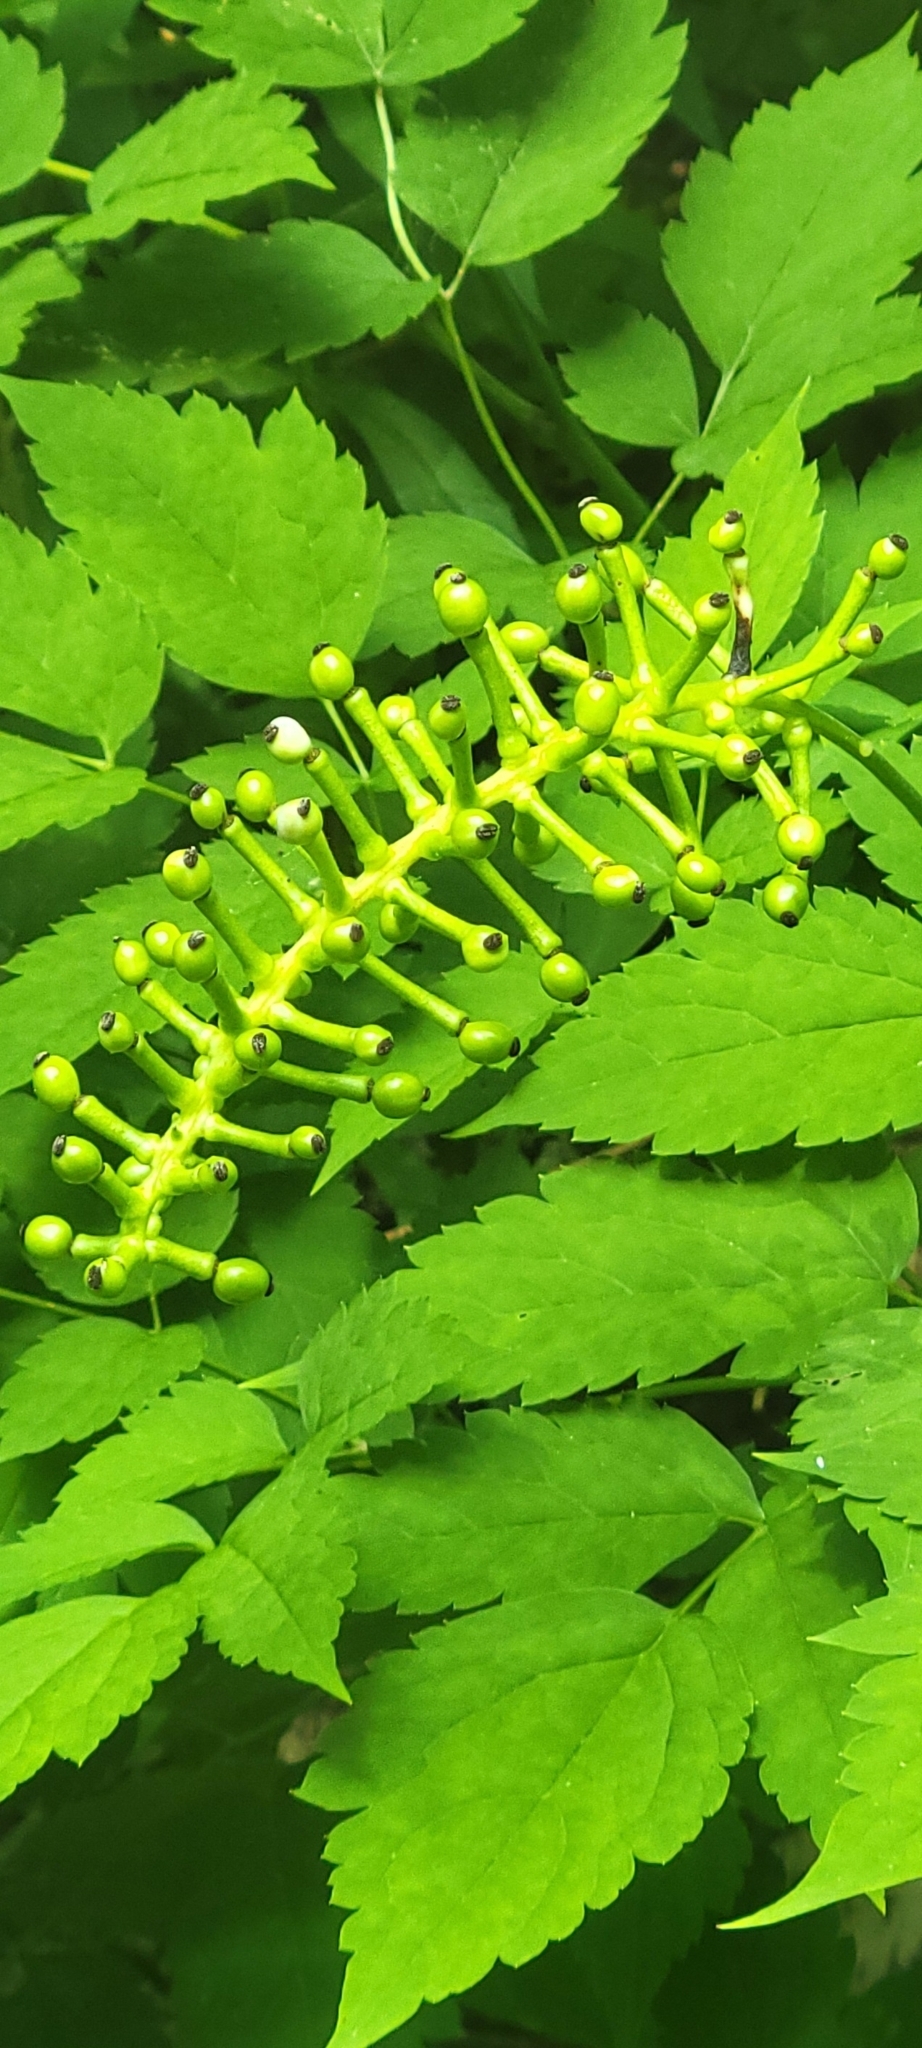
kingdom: Plantae
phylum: Tracheophyta
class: Magnoliopsida
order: Ranunculales
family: Ranunculaceae
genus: Actaea
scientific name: Actaea pachypoda
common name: Doll's-eyes
